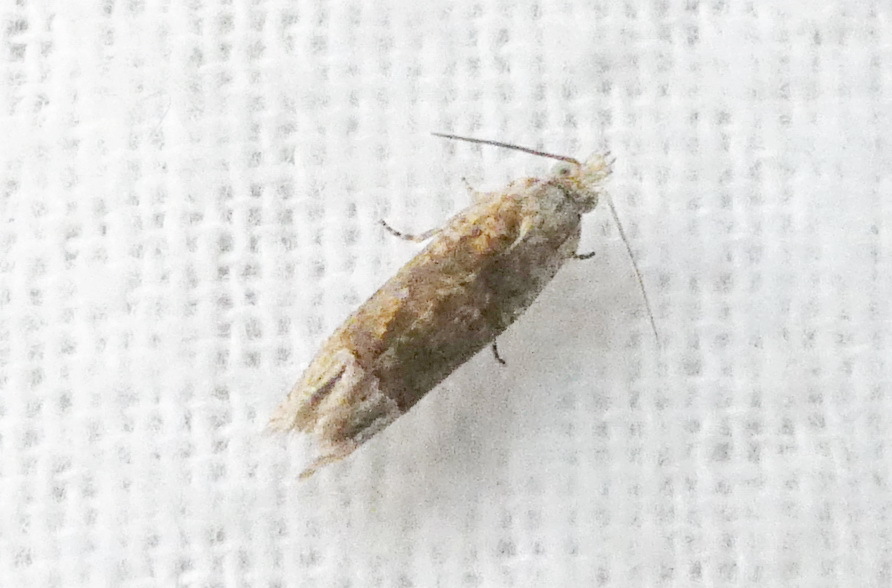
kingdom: Animalia
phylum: Arthropoda
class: Insecta
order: Lepidoptera
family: Tortricidae
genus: Eucosma
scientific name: Eucosma raracana
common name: Reddish eucosma moth
